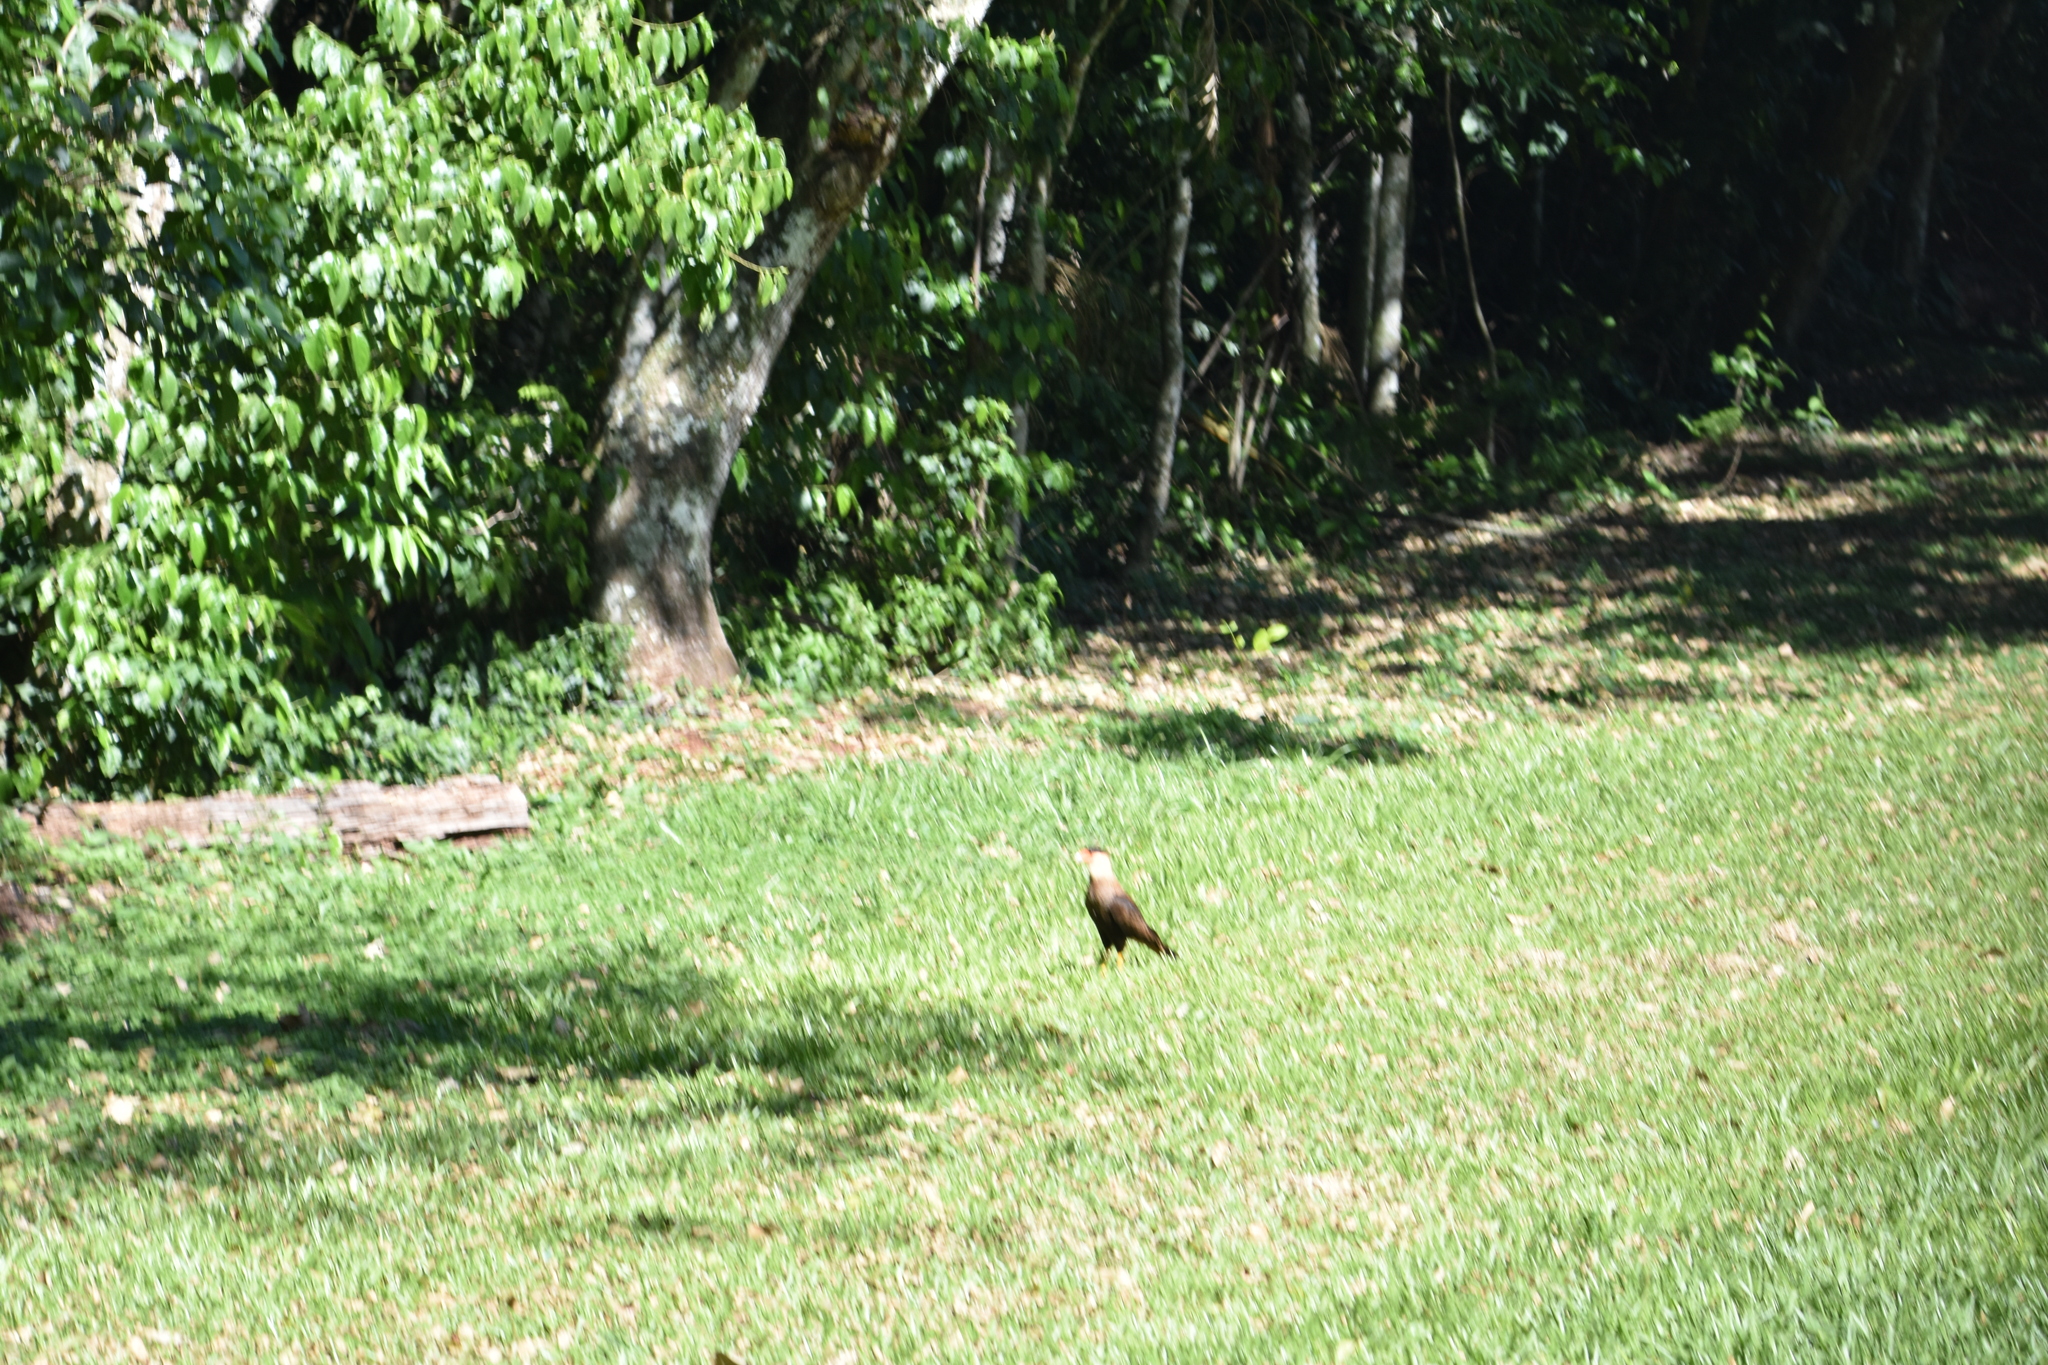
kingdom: Animalia
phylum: Chordata
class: Aves
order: Falconiformes
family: Falconidae
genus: Caracara
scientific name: Caracara plancus
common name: Southern caracara
